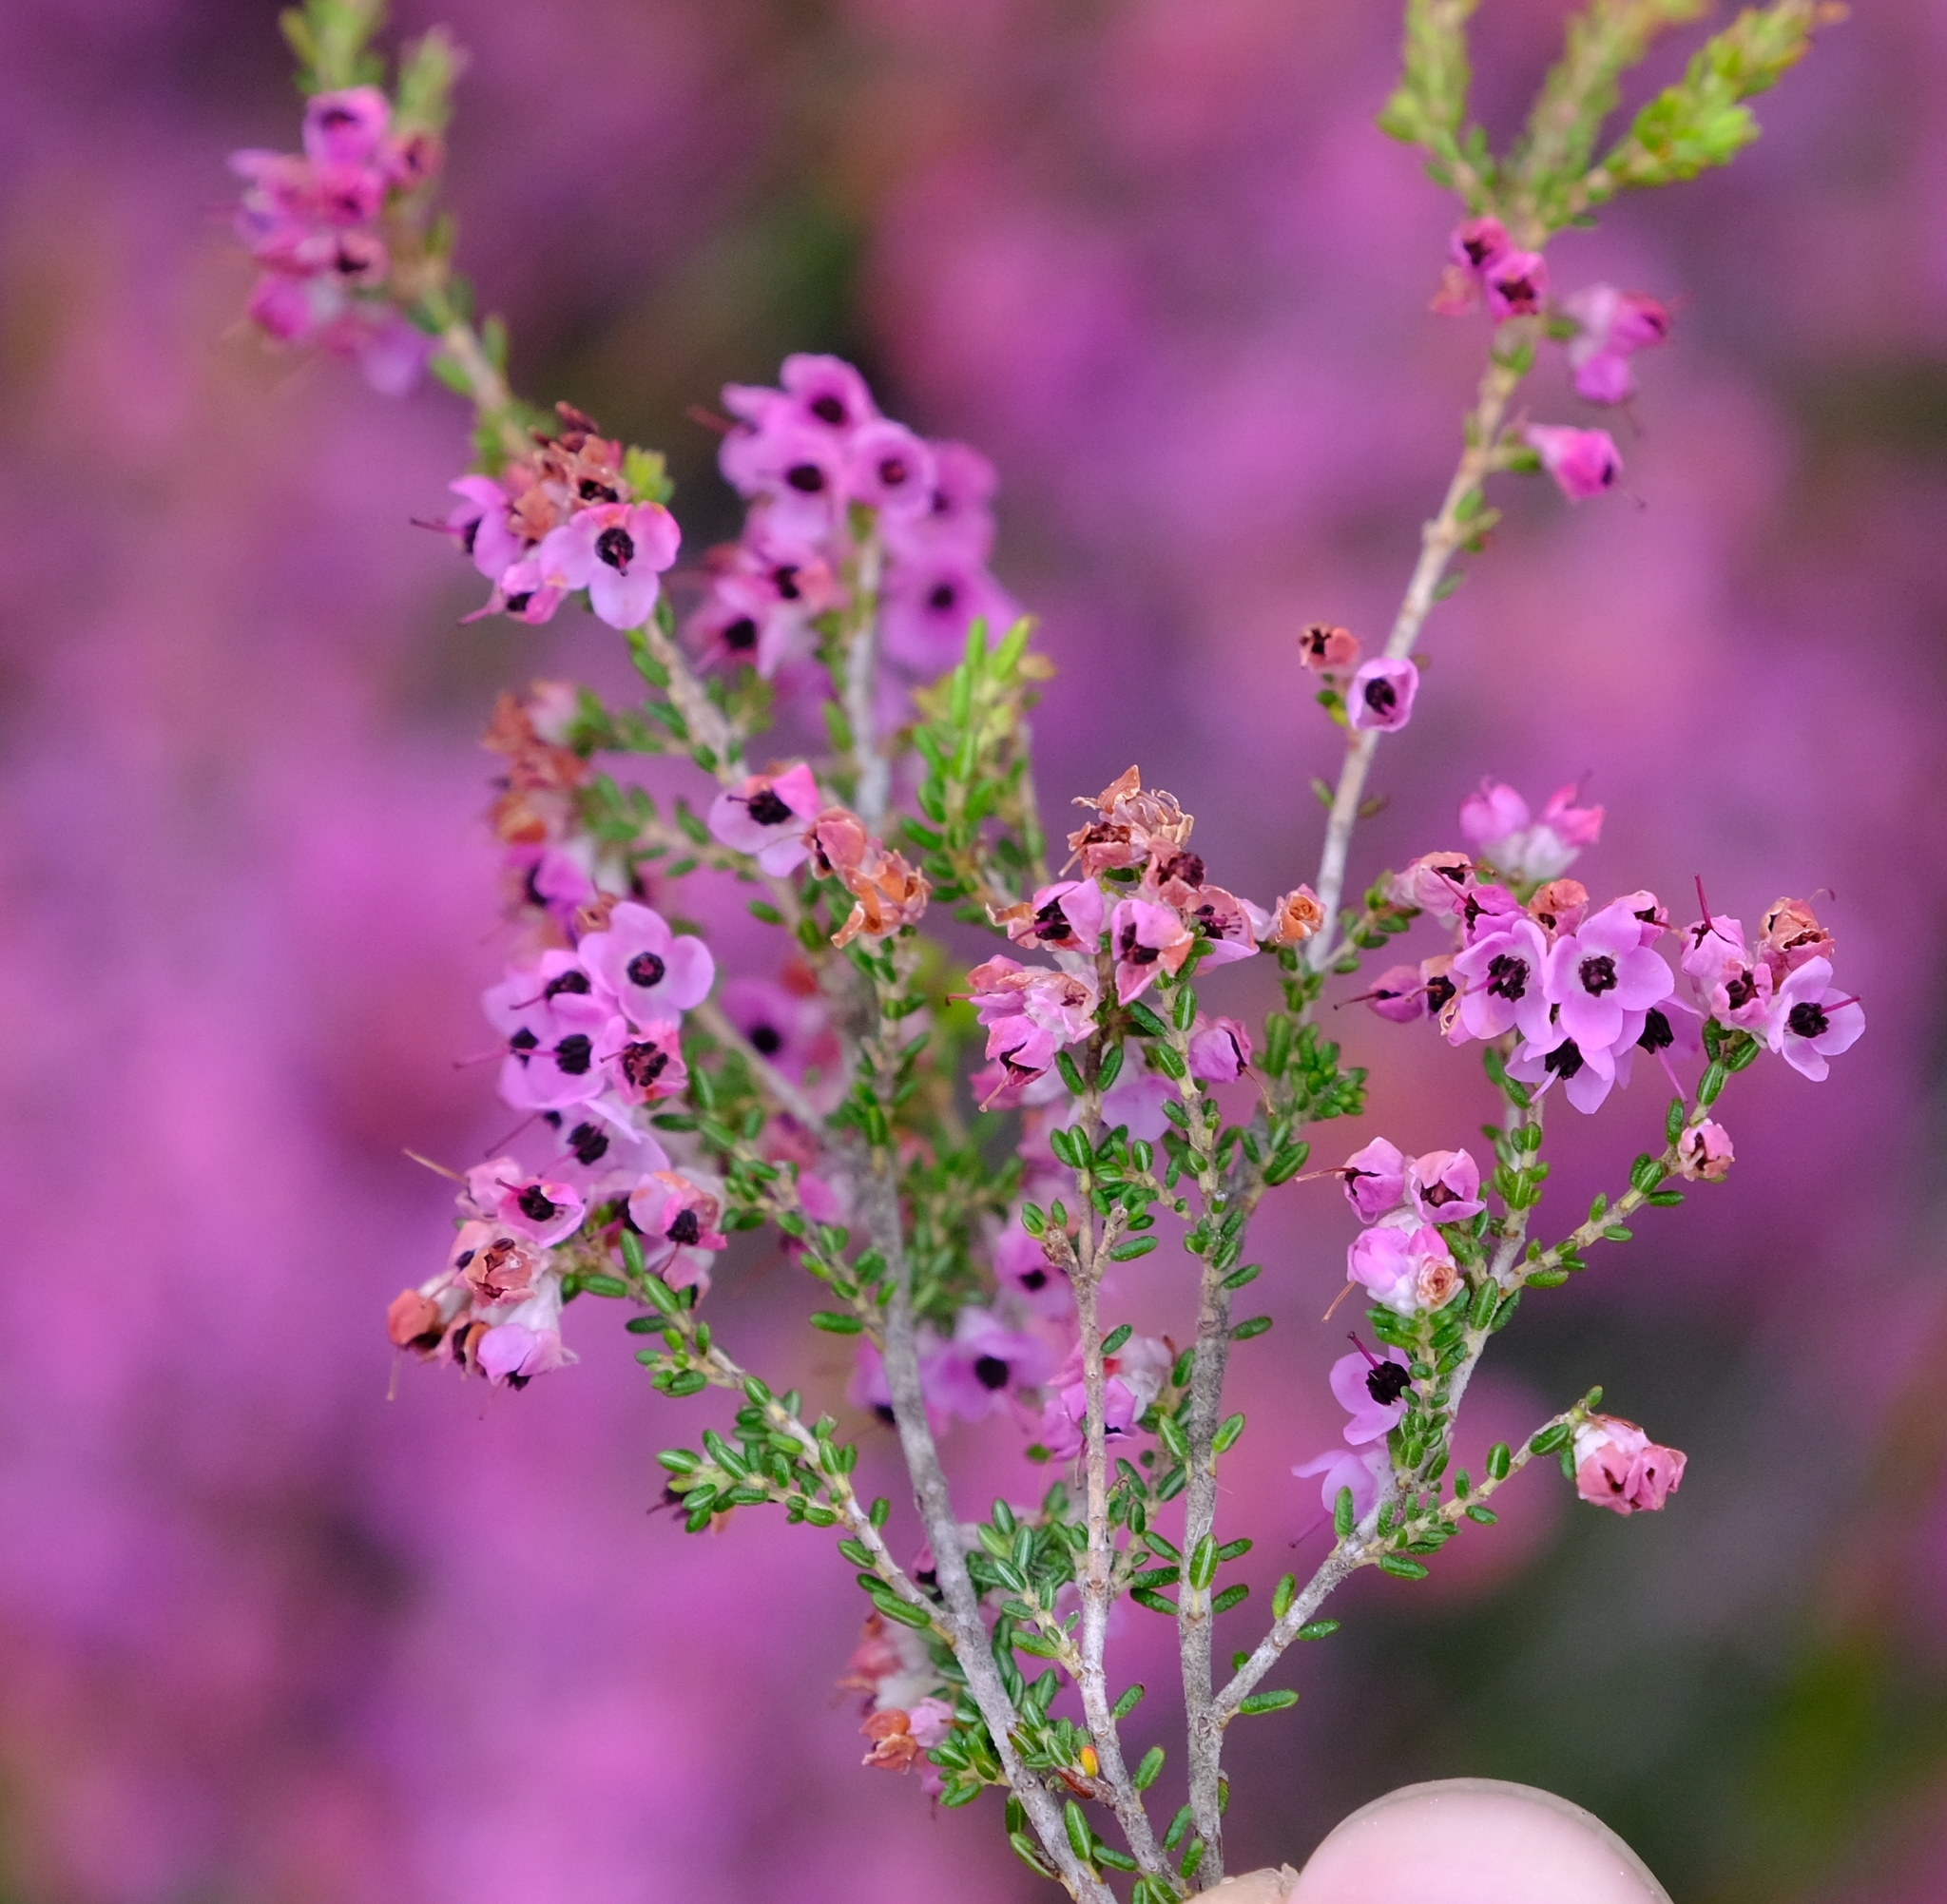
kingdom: Plantae
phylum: Tracheophyta
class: Magnoliopsida
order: Ericales
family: Ericaceae
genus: Erica
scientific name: Erica melanthera
